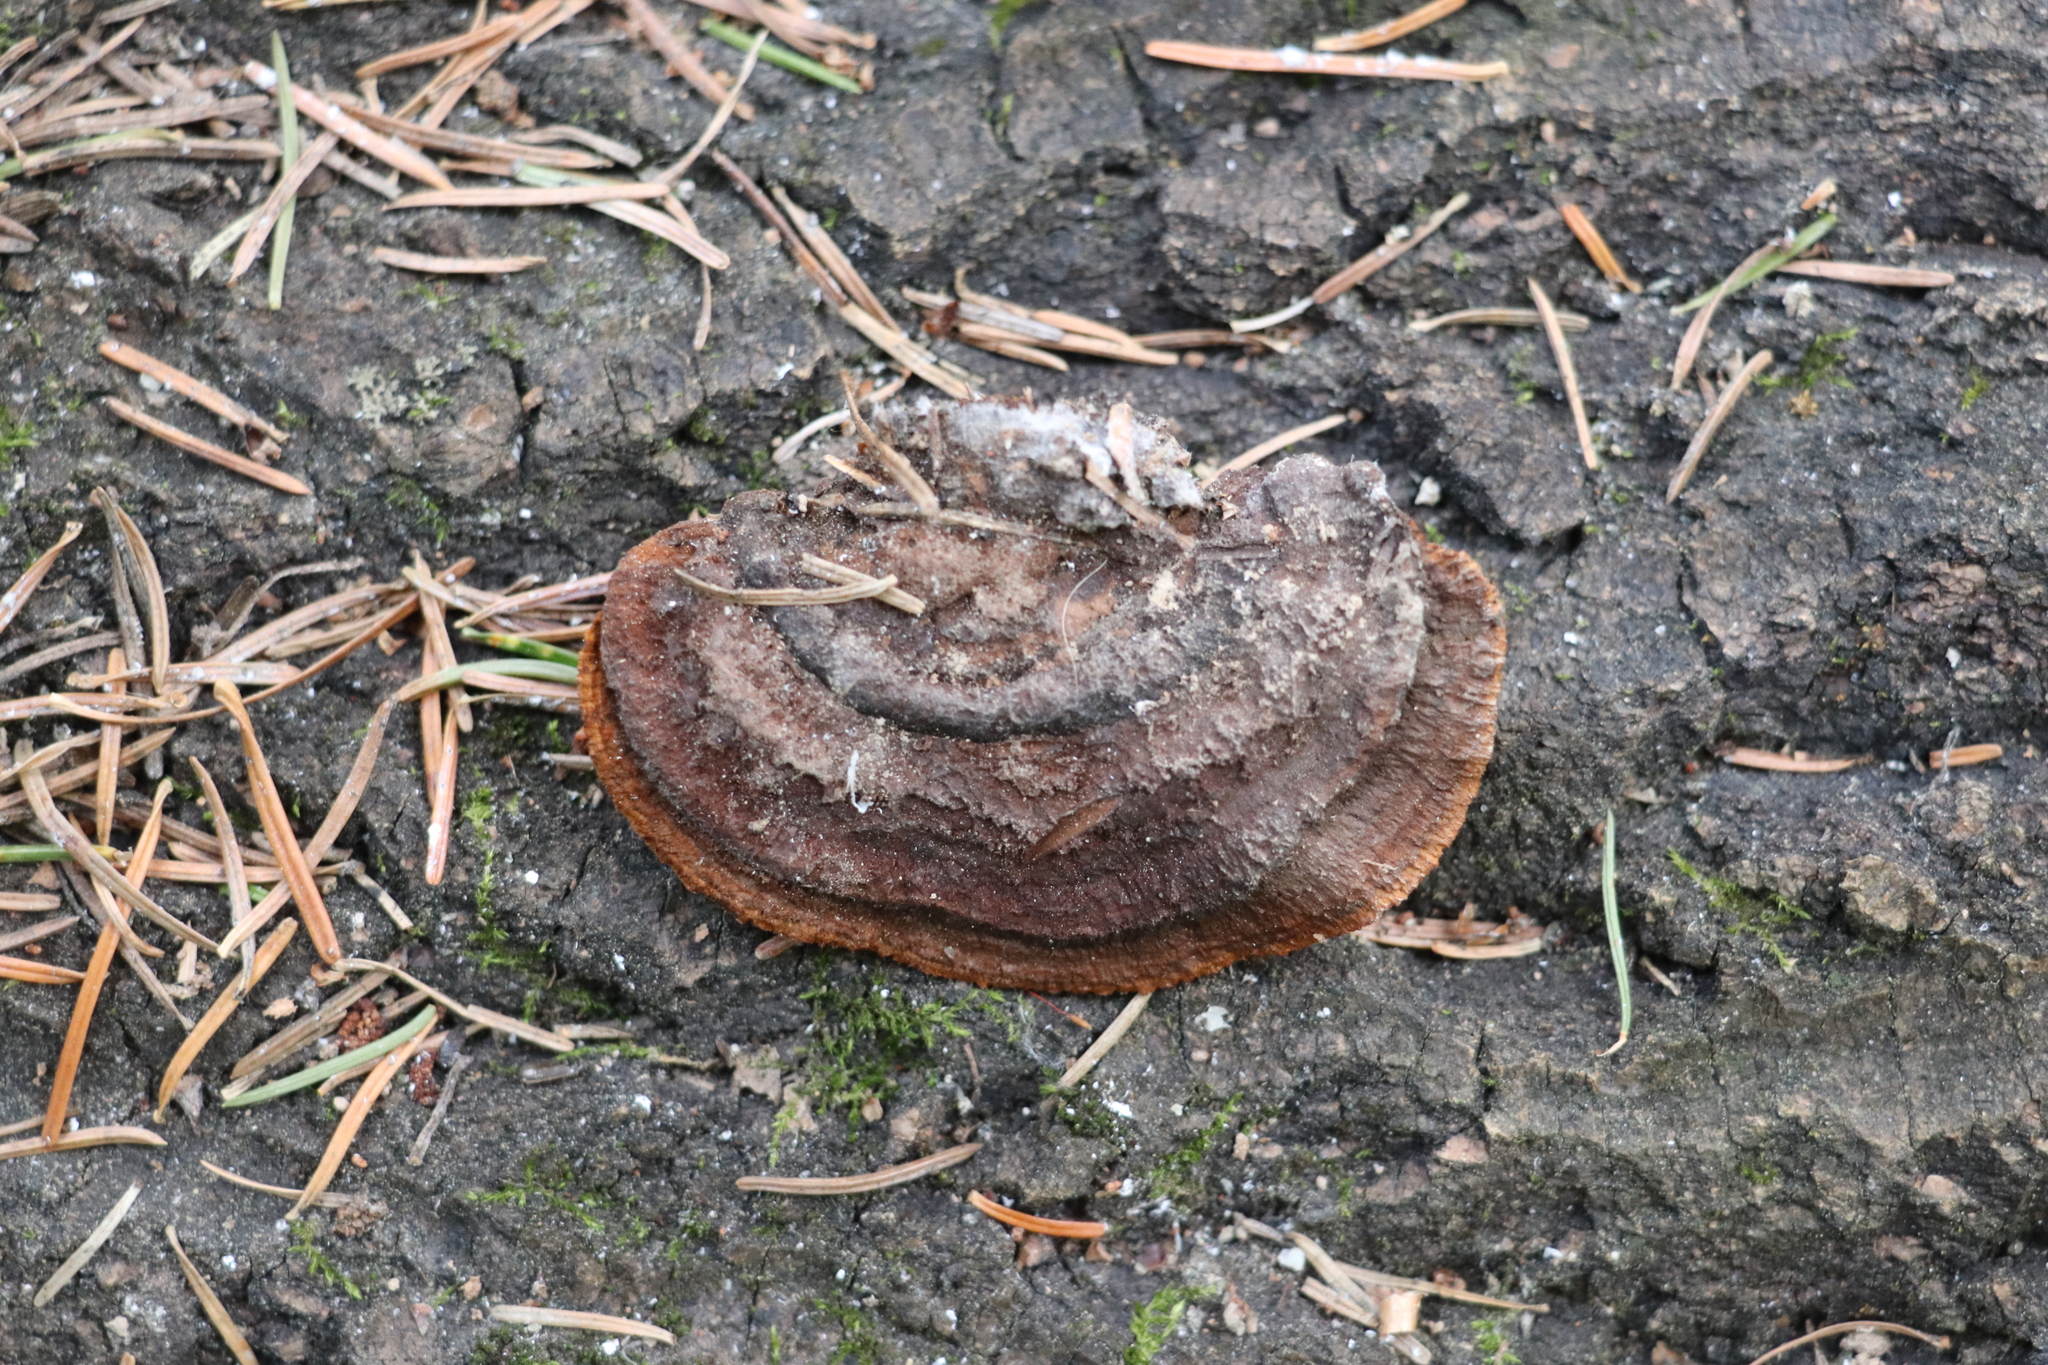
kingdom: Fungi
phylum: Basidiomycota
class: Agaricomycetes
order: Gloeophyllales
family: Gloeophyllaceae
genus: Gloeophyllum
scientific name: Gloeophyllum sepiarium
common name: Conifer mazegill
